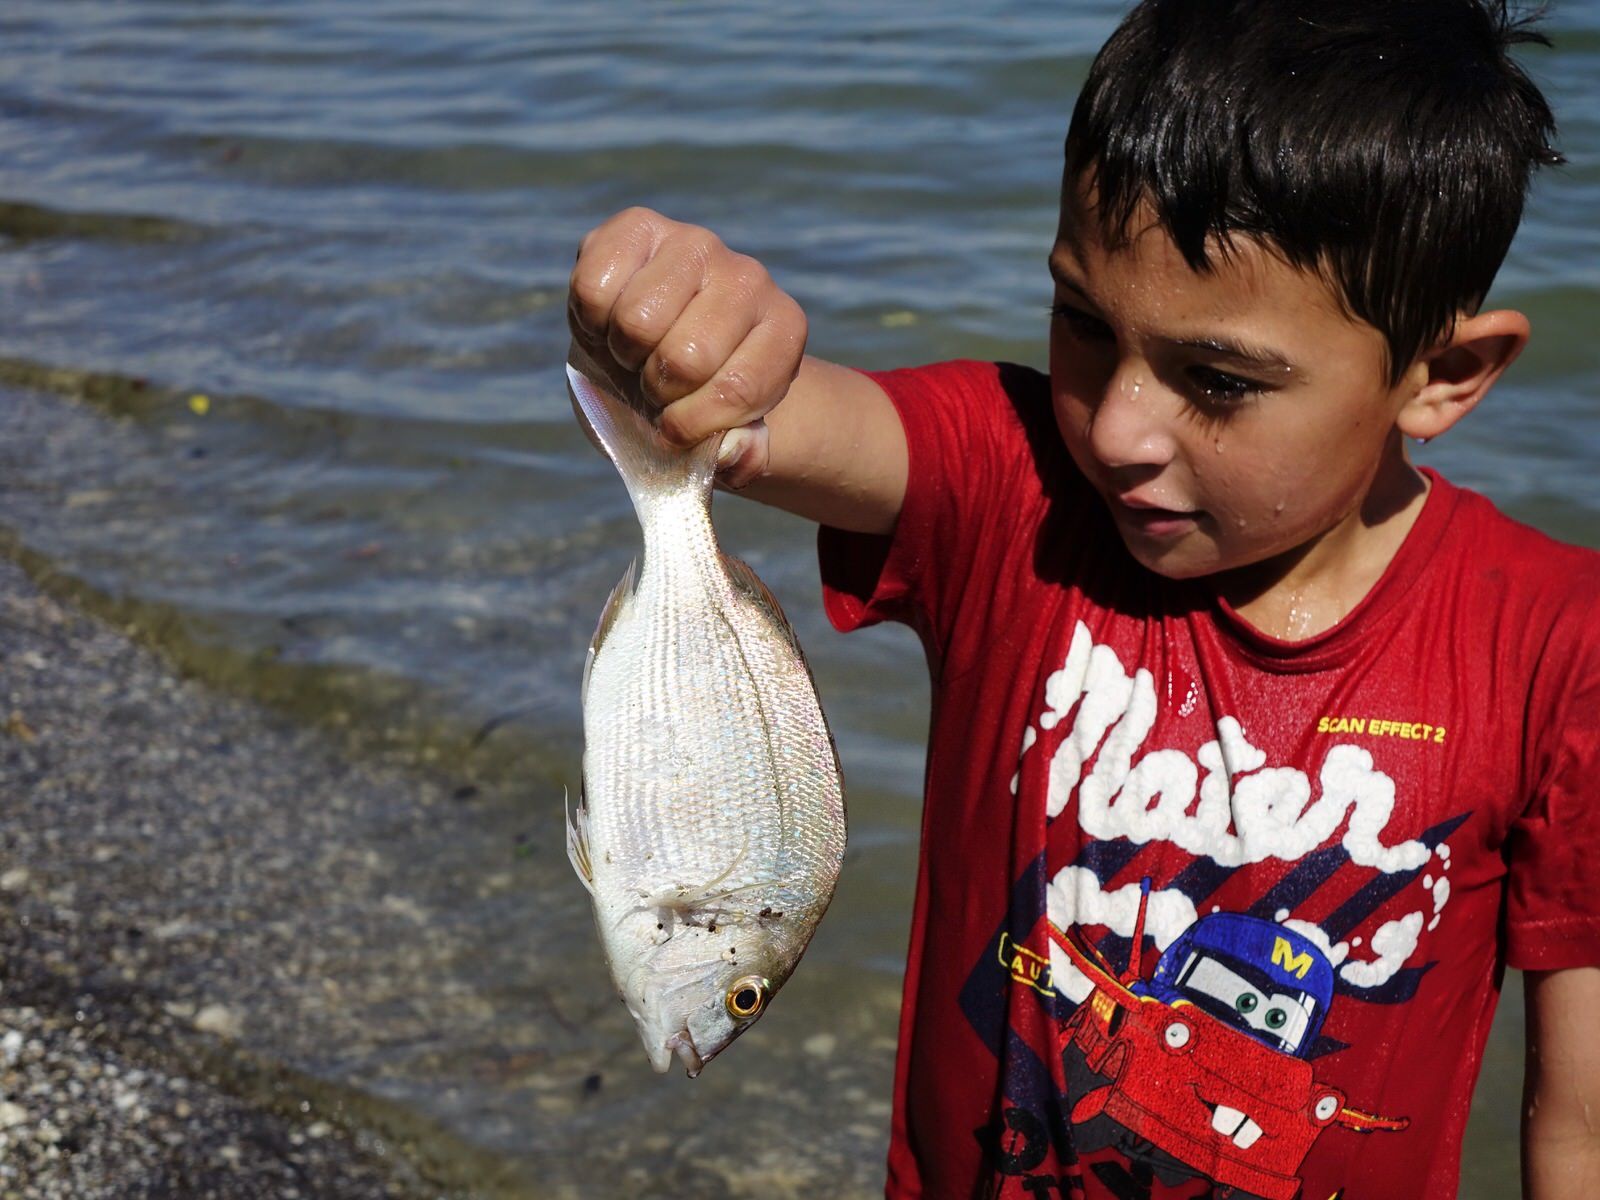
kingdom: Animalia
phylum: Chordata
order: Perciformes
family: Sparidae
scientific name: Sparidae
